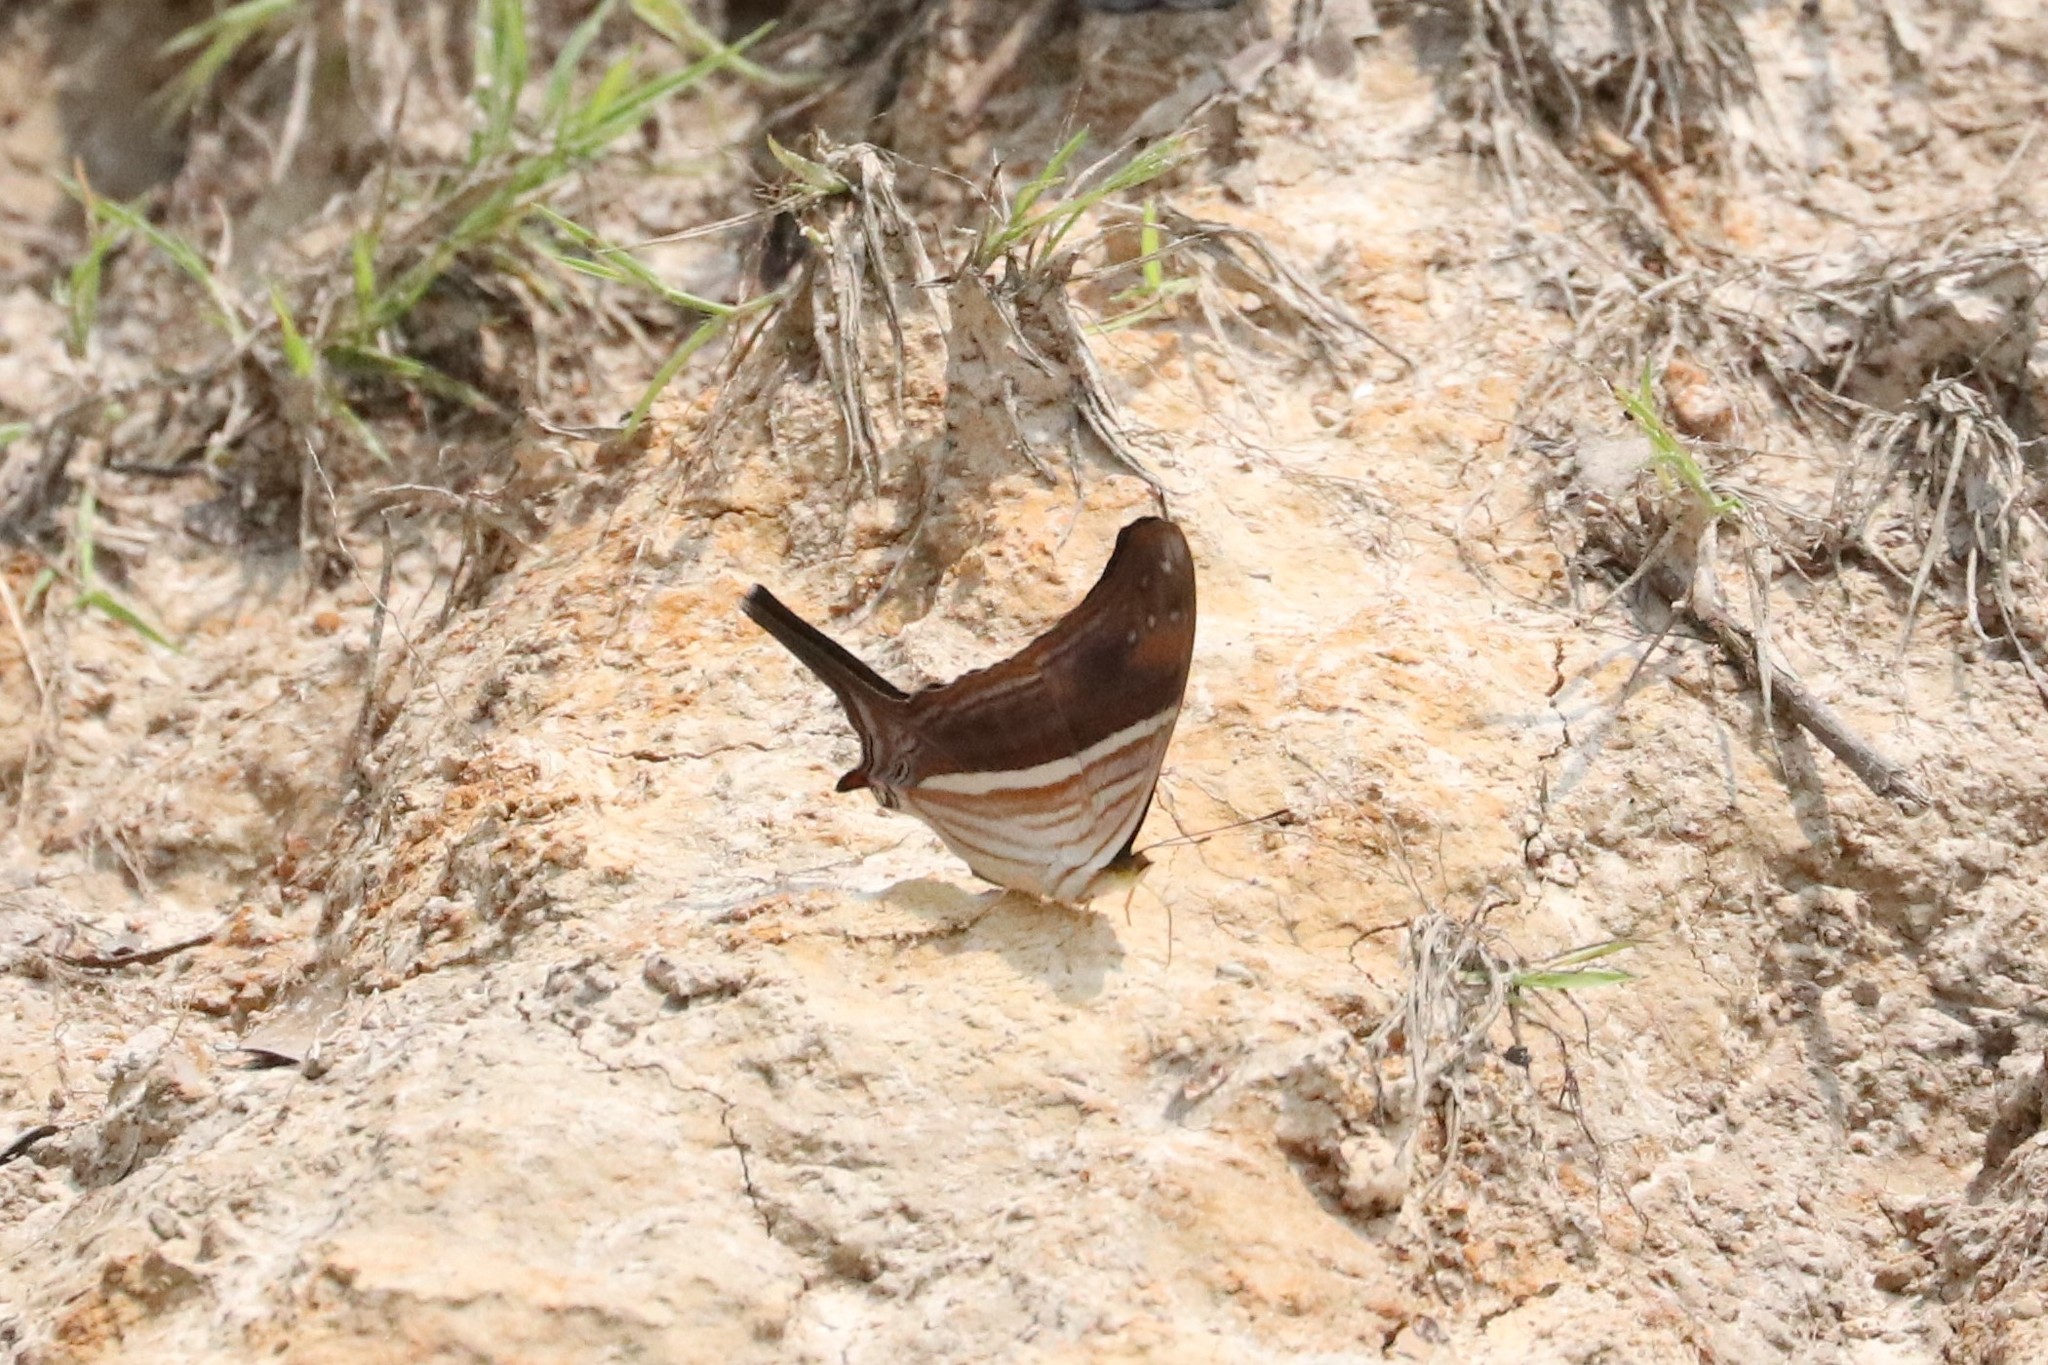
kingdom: Animalia
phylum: Arthropoda
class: Insecta
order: Lepidoptera
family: Nymphalidae
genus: Marpesia
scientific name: Marpesia chiron
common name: Many-banded daggerwing
